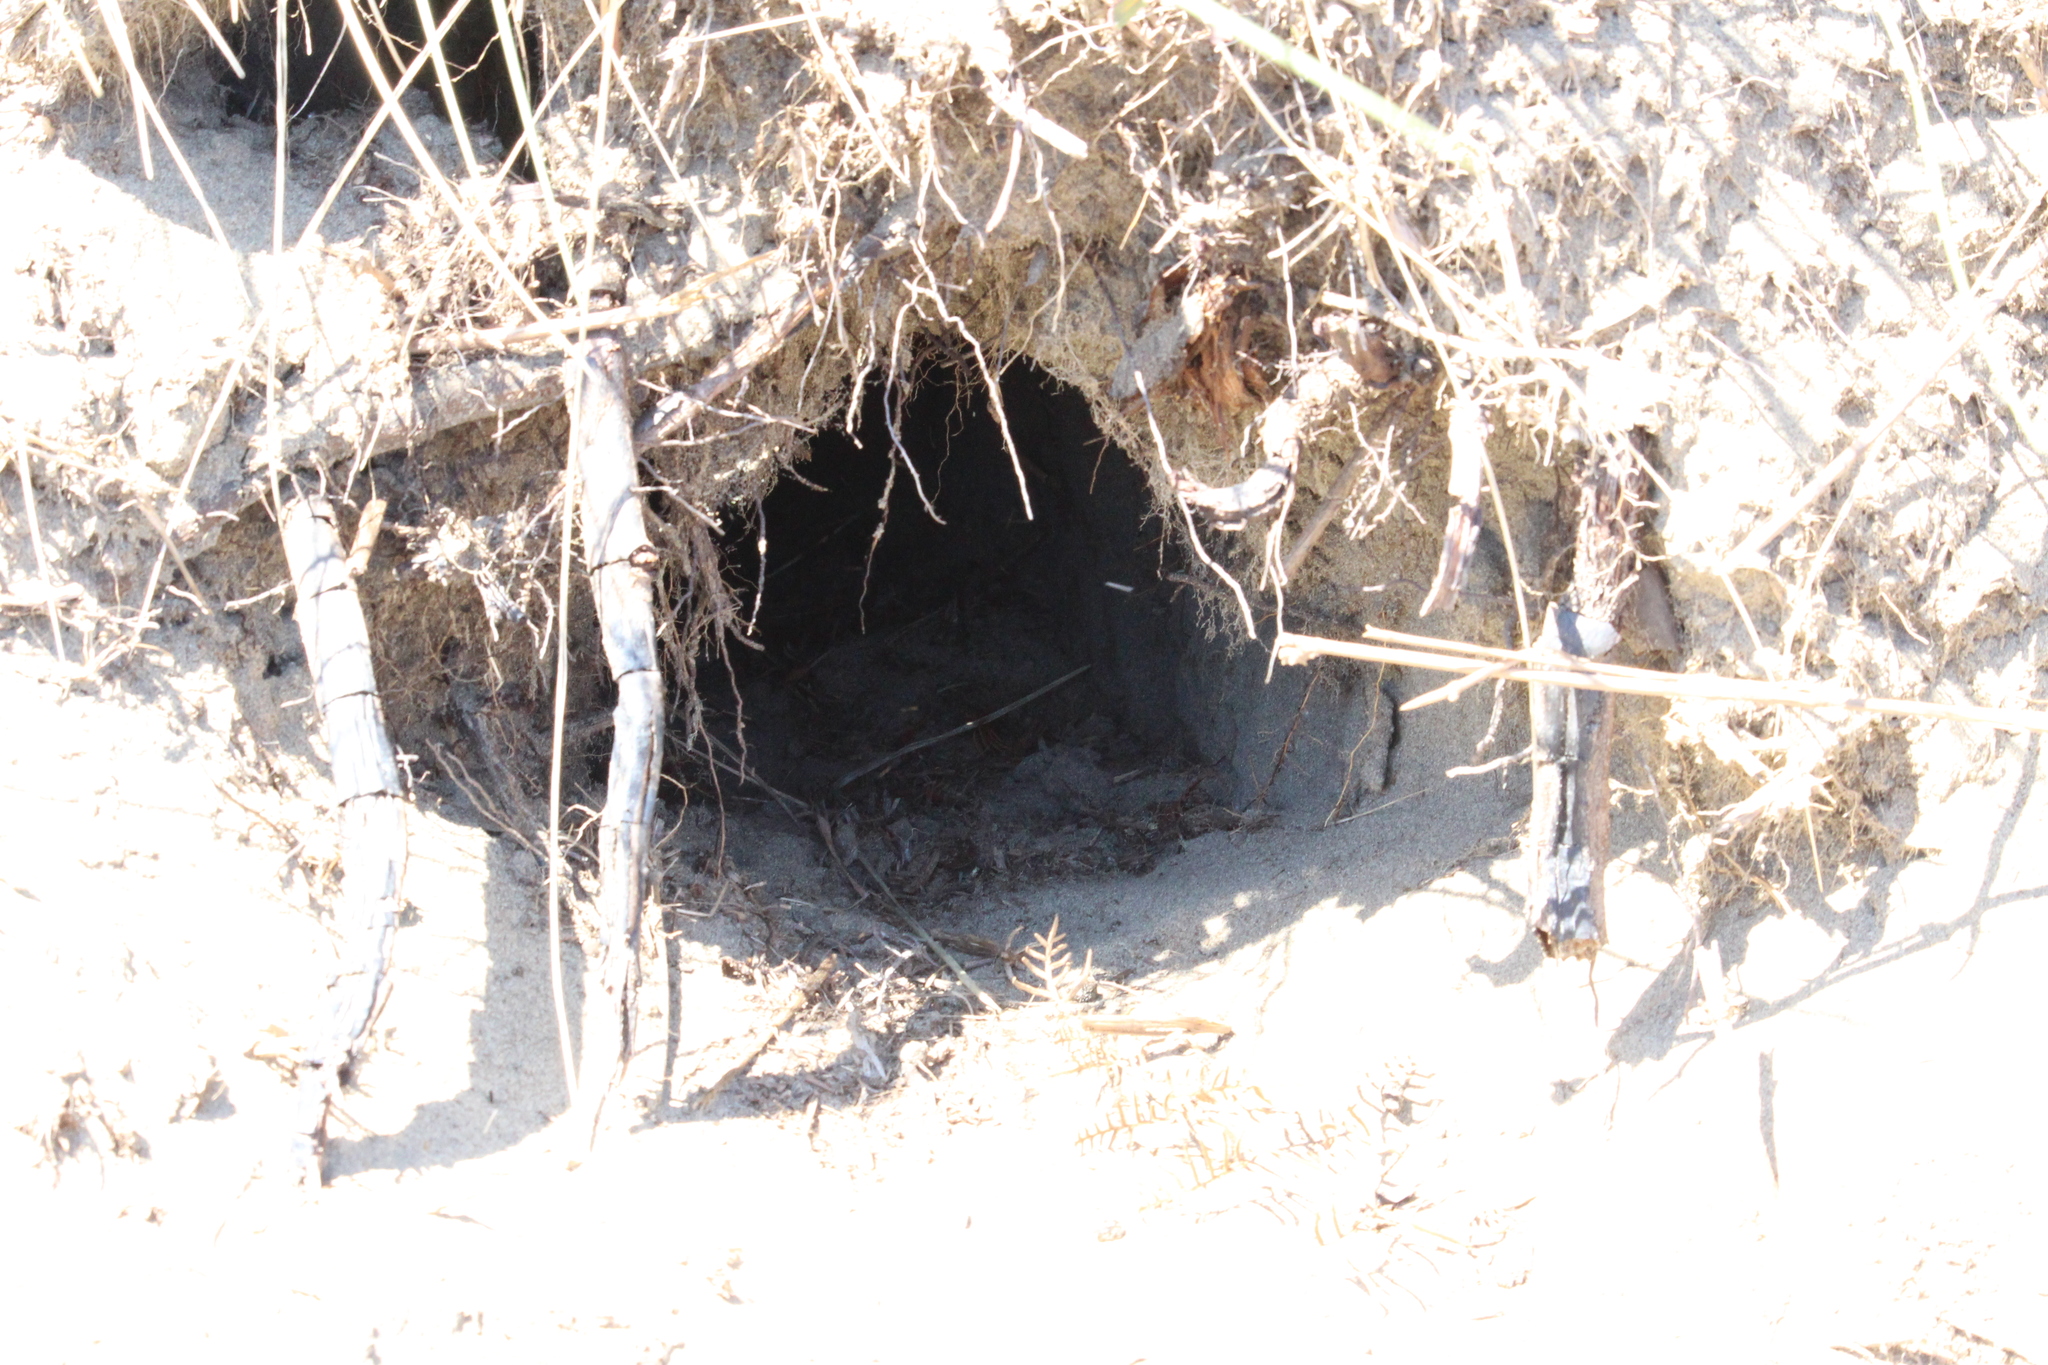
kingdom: Animalia
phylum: Chordata
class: Mammalia
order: Lagomorpha
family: Leporidae
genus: Oryctolagus
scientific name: Oryctolagus cuniculus
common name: European rabbit
